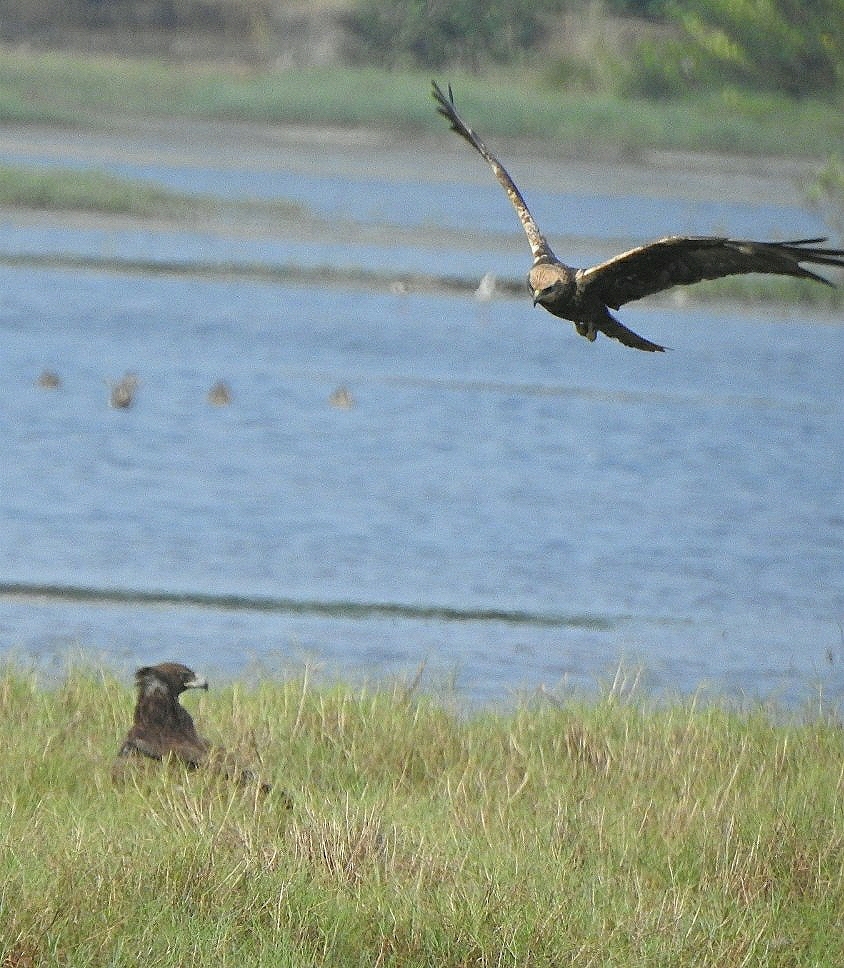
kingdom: Animalia
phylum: Chordata
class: Aves
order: Accipitriformes
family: Accipitridae
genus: Circus
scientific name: Circus aeruginosus
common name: Western marsh harrier
